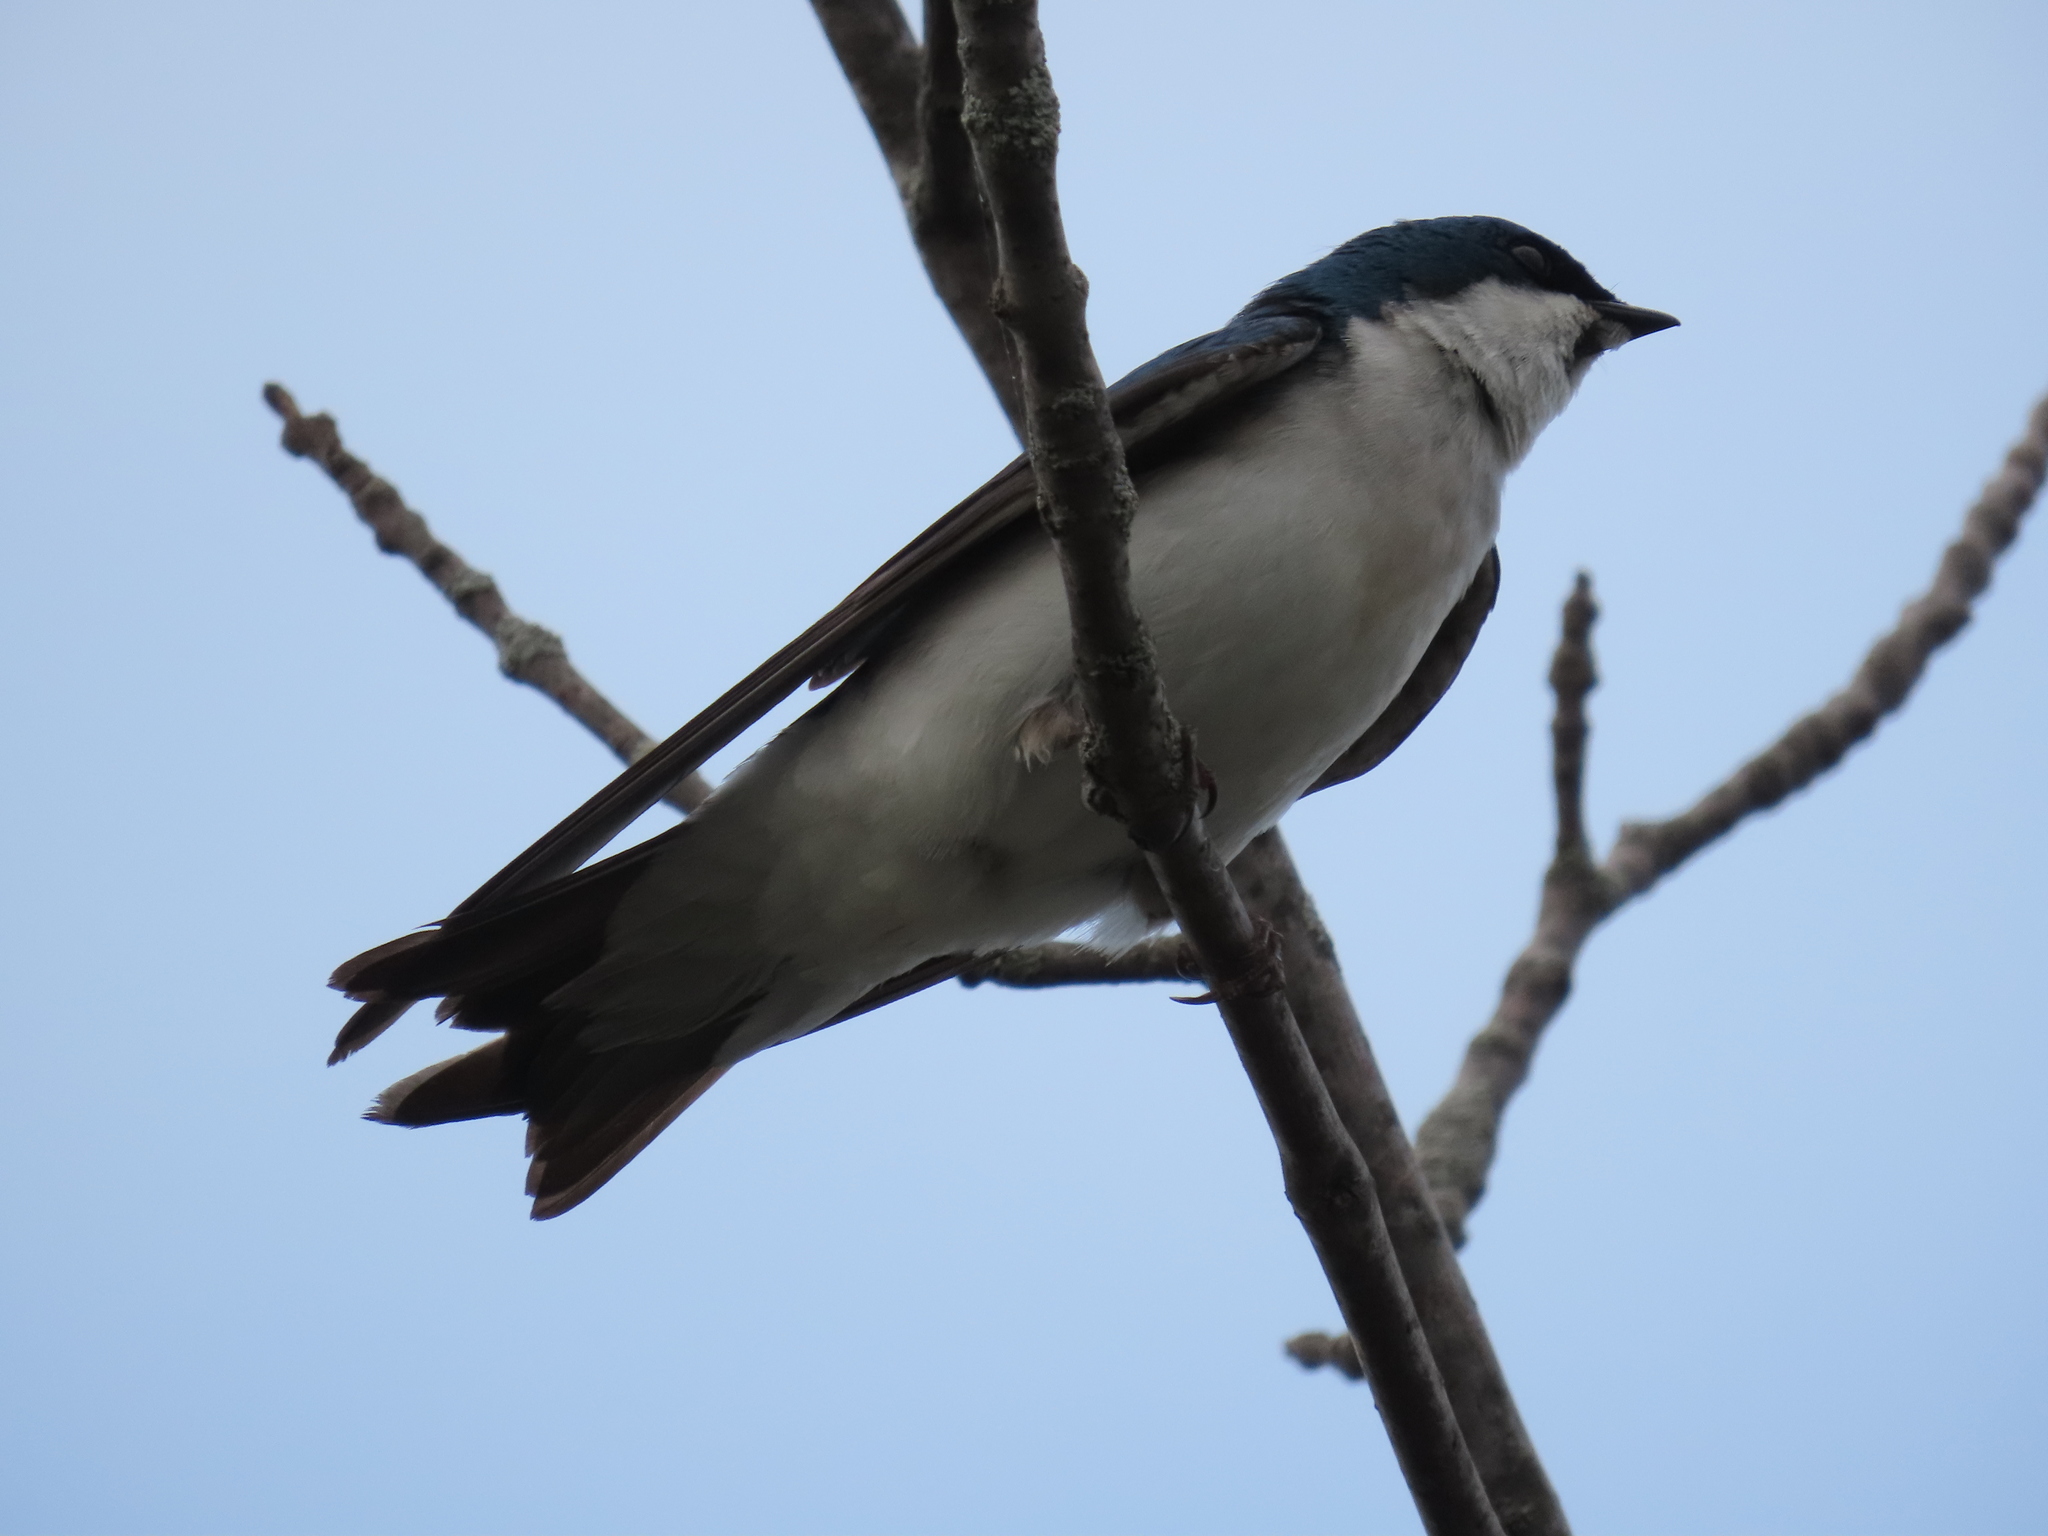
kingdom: Animalia
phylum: Chordata
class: Aves
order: Passeriformes
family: Hirundinidae
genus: Tachycineta
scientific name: Tachycineta bicolor
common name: Tree swallow
